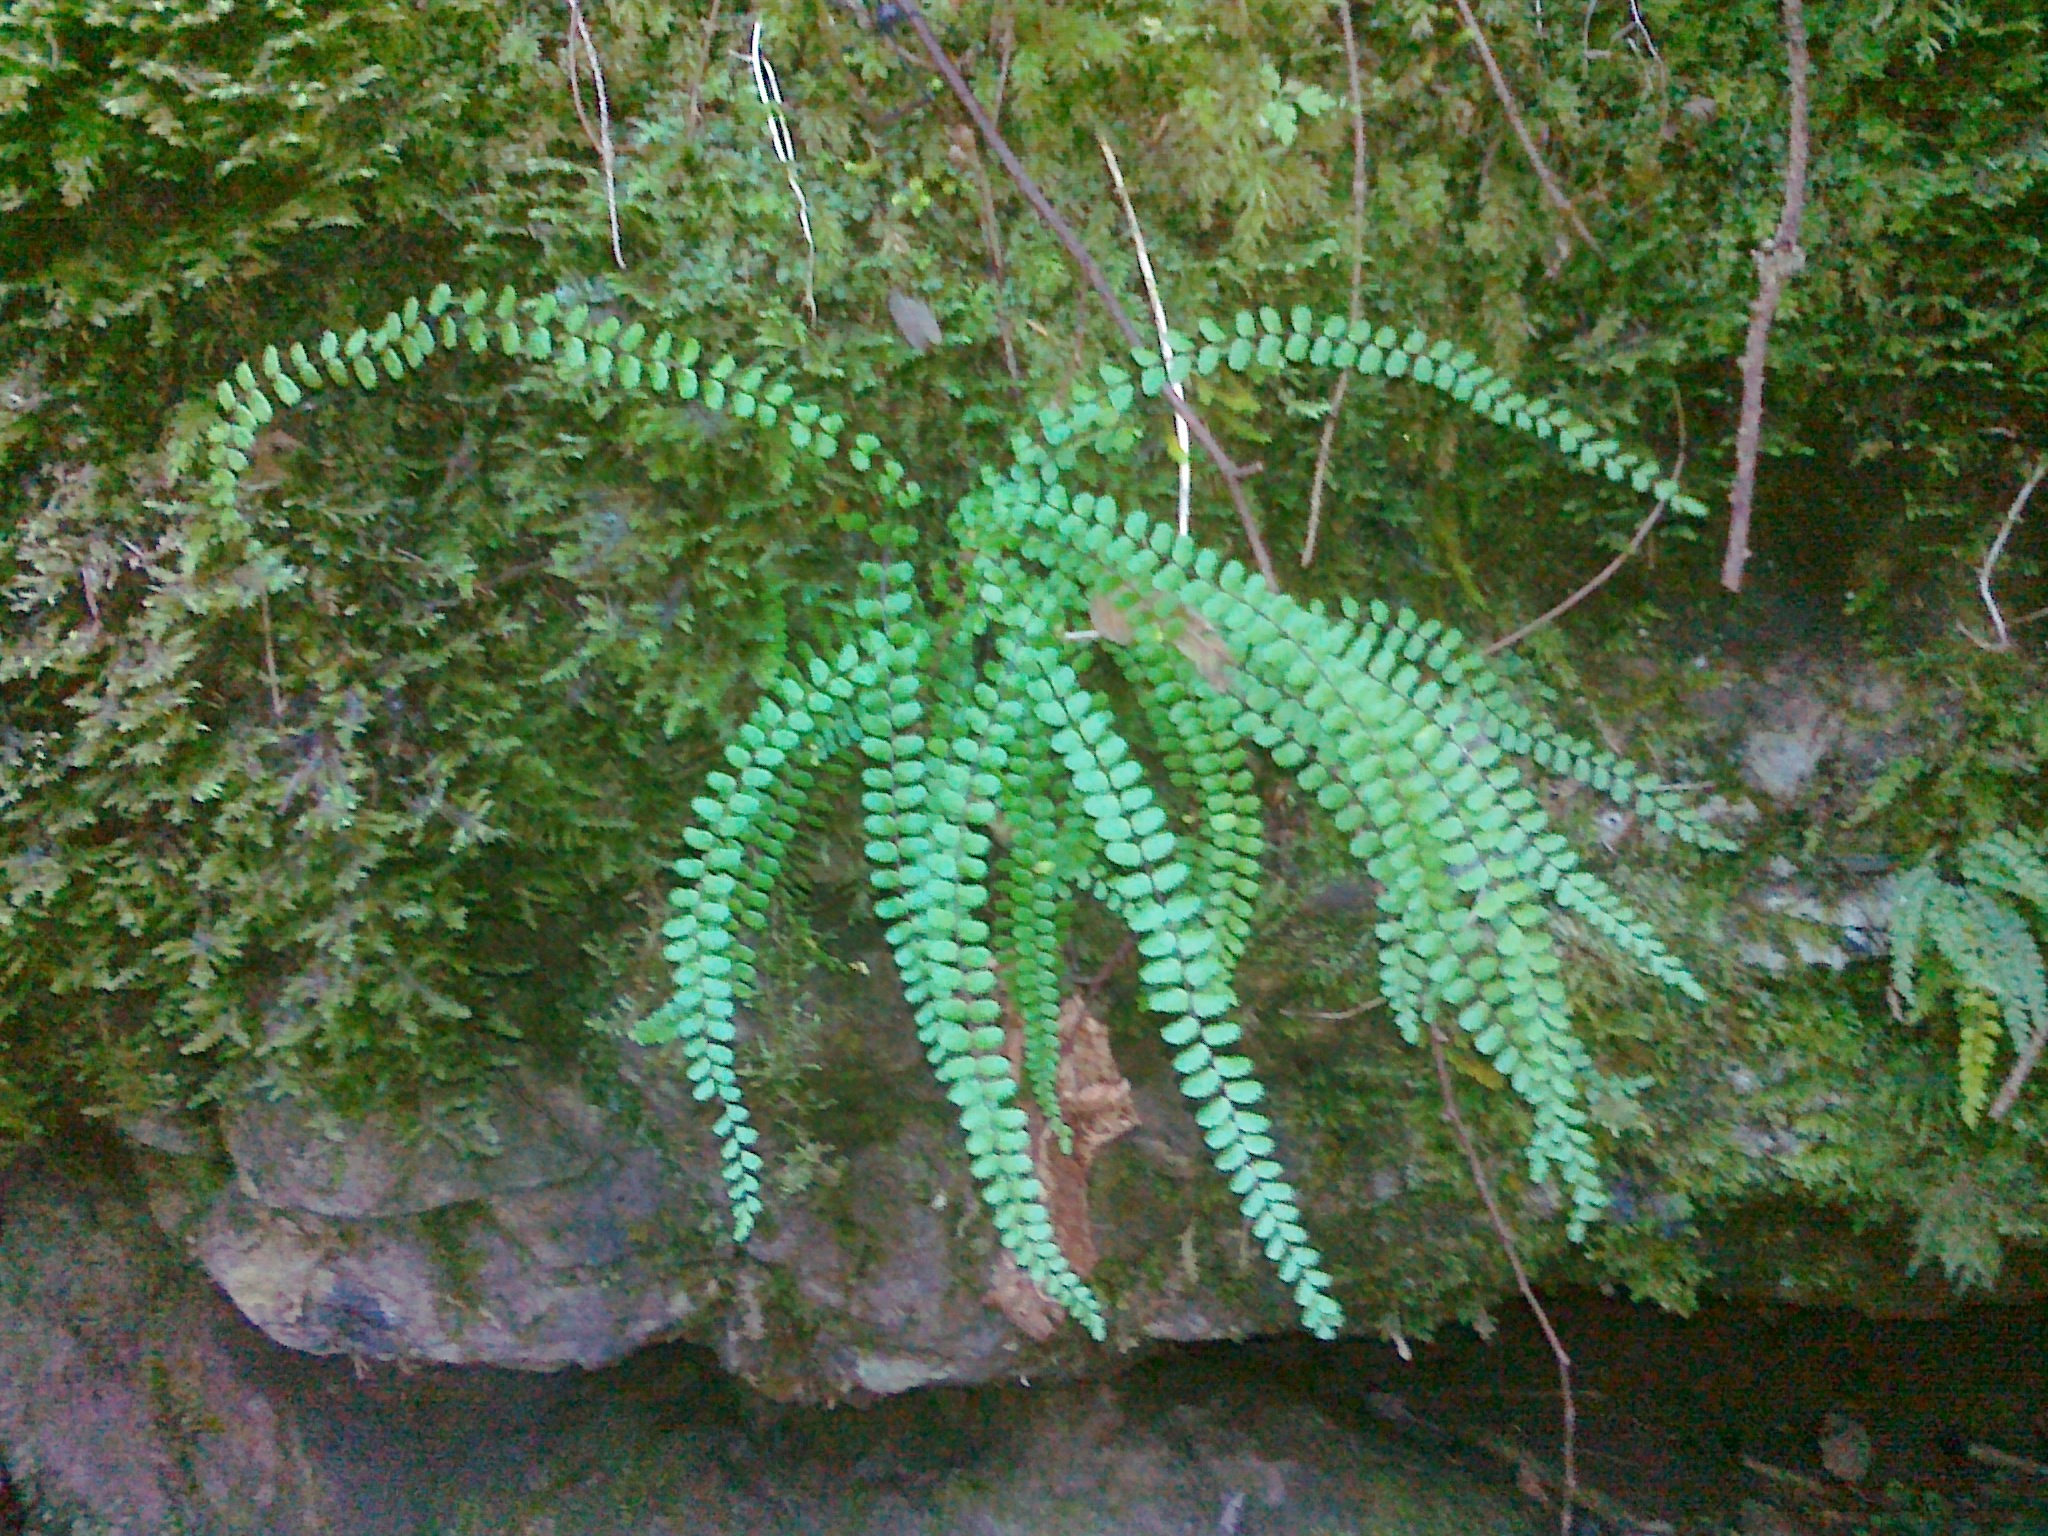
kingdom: Plantae
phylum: Tracheophyta
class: Polypodiopsida
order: Polypodiales
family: Aspleniaceae
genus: Asplenium
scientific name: Asplenium quadrivalens
